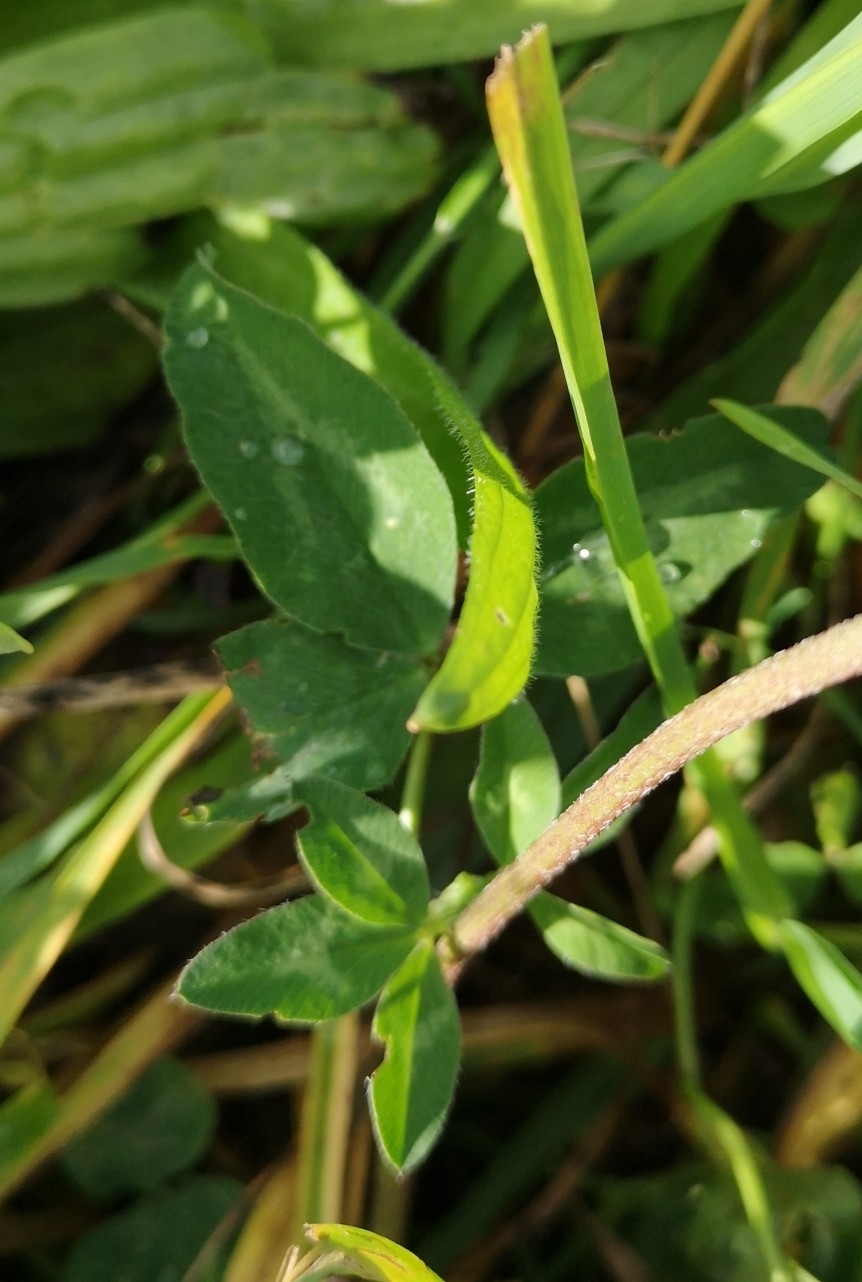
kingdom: Plantae
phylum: Tracheophyta
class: Magnoliopsida
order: Fabales
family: Fabaceae
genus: Trifolium
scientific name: Trifolium pratense
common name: Red clover
